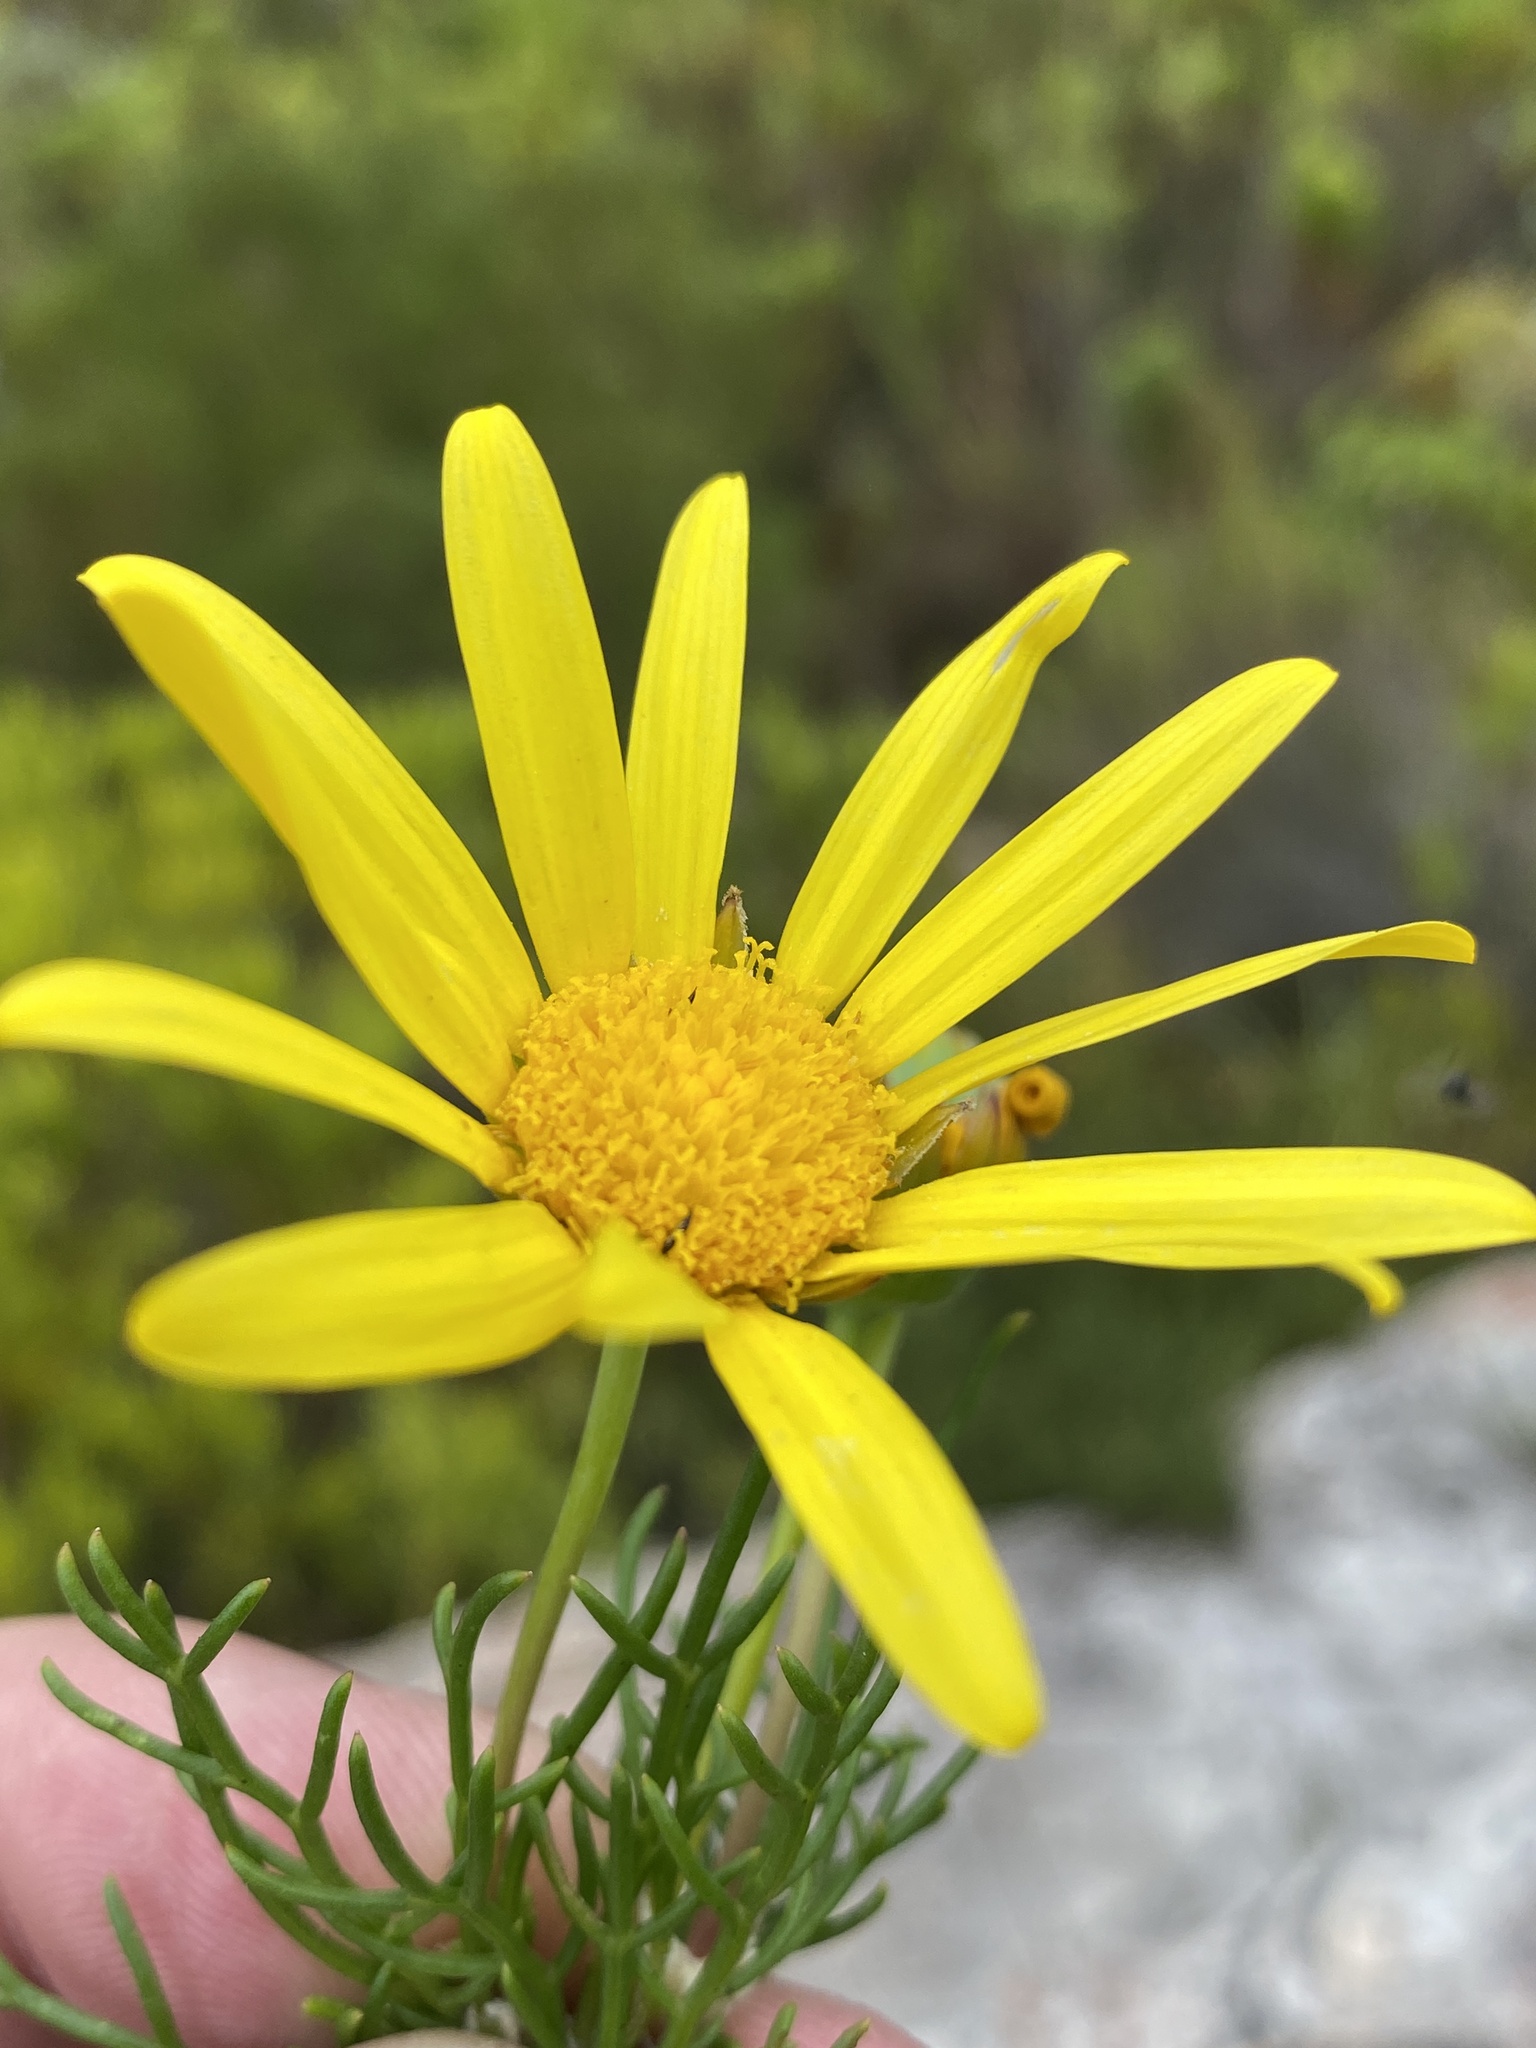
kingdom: Plantae
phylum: Tracheophyta
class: Magnoliopsida
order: Asterales
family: Asteraceae
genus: Euryops
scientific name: Euryops abrotanifolius
